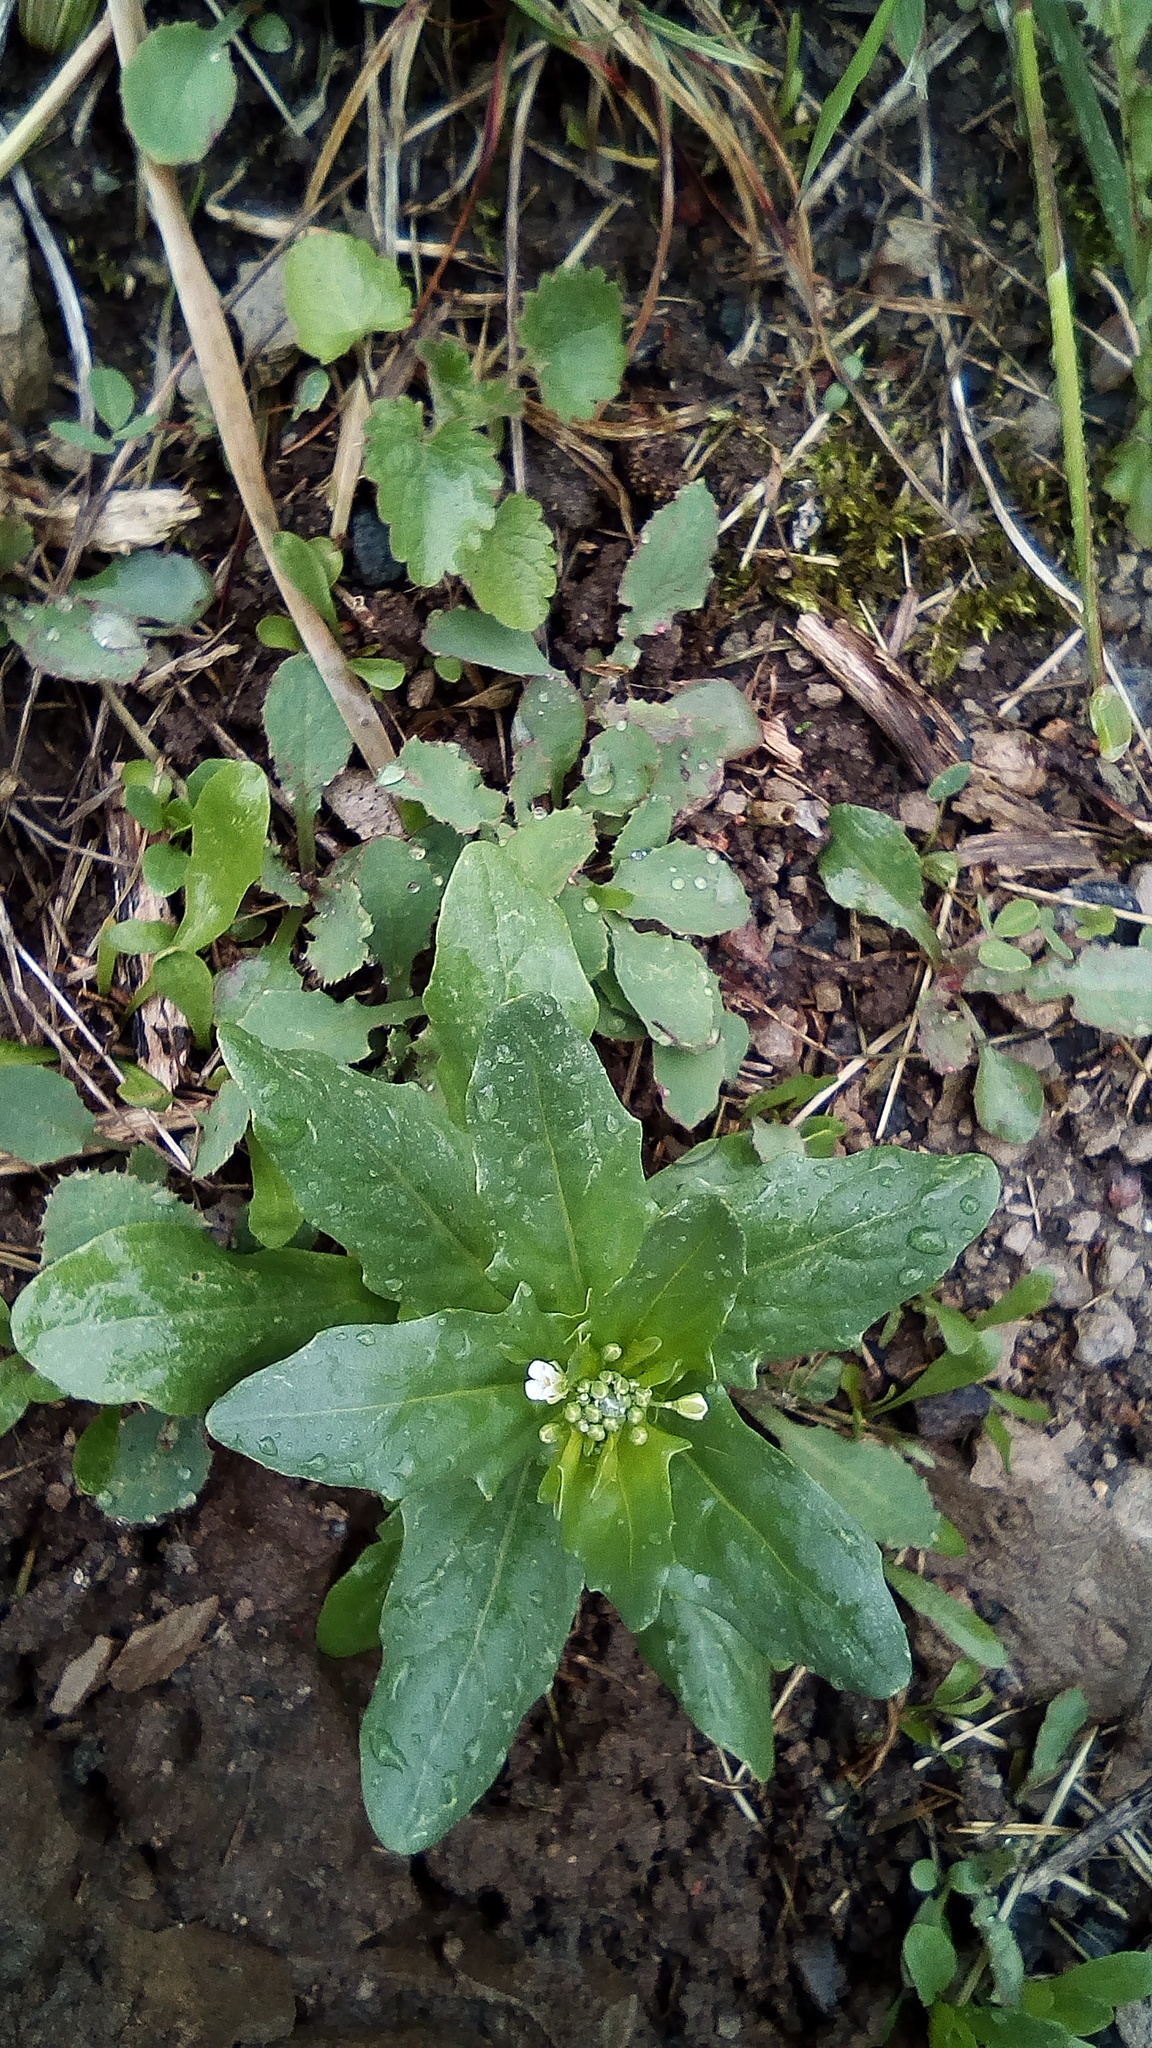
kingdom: Plantae
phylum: Tracheophyta
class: Magnoliopsida
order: Brassicales
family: Brassicaceae
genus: Thlaspi
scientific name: Thlaspi arvense
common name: Field pennycress
